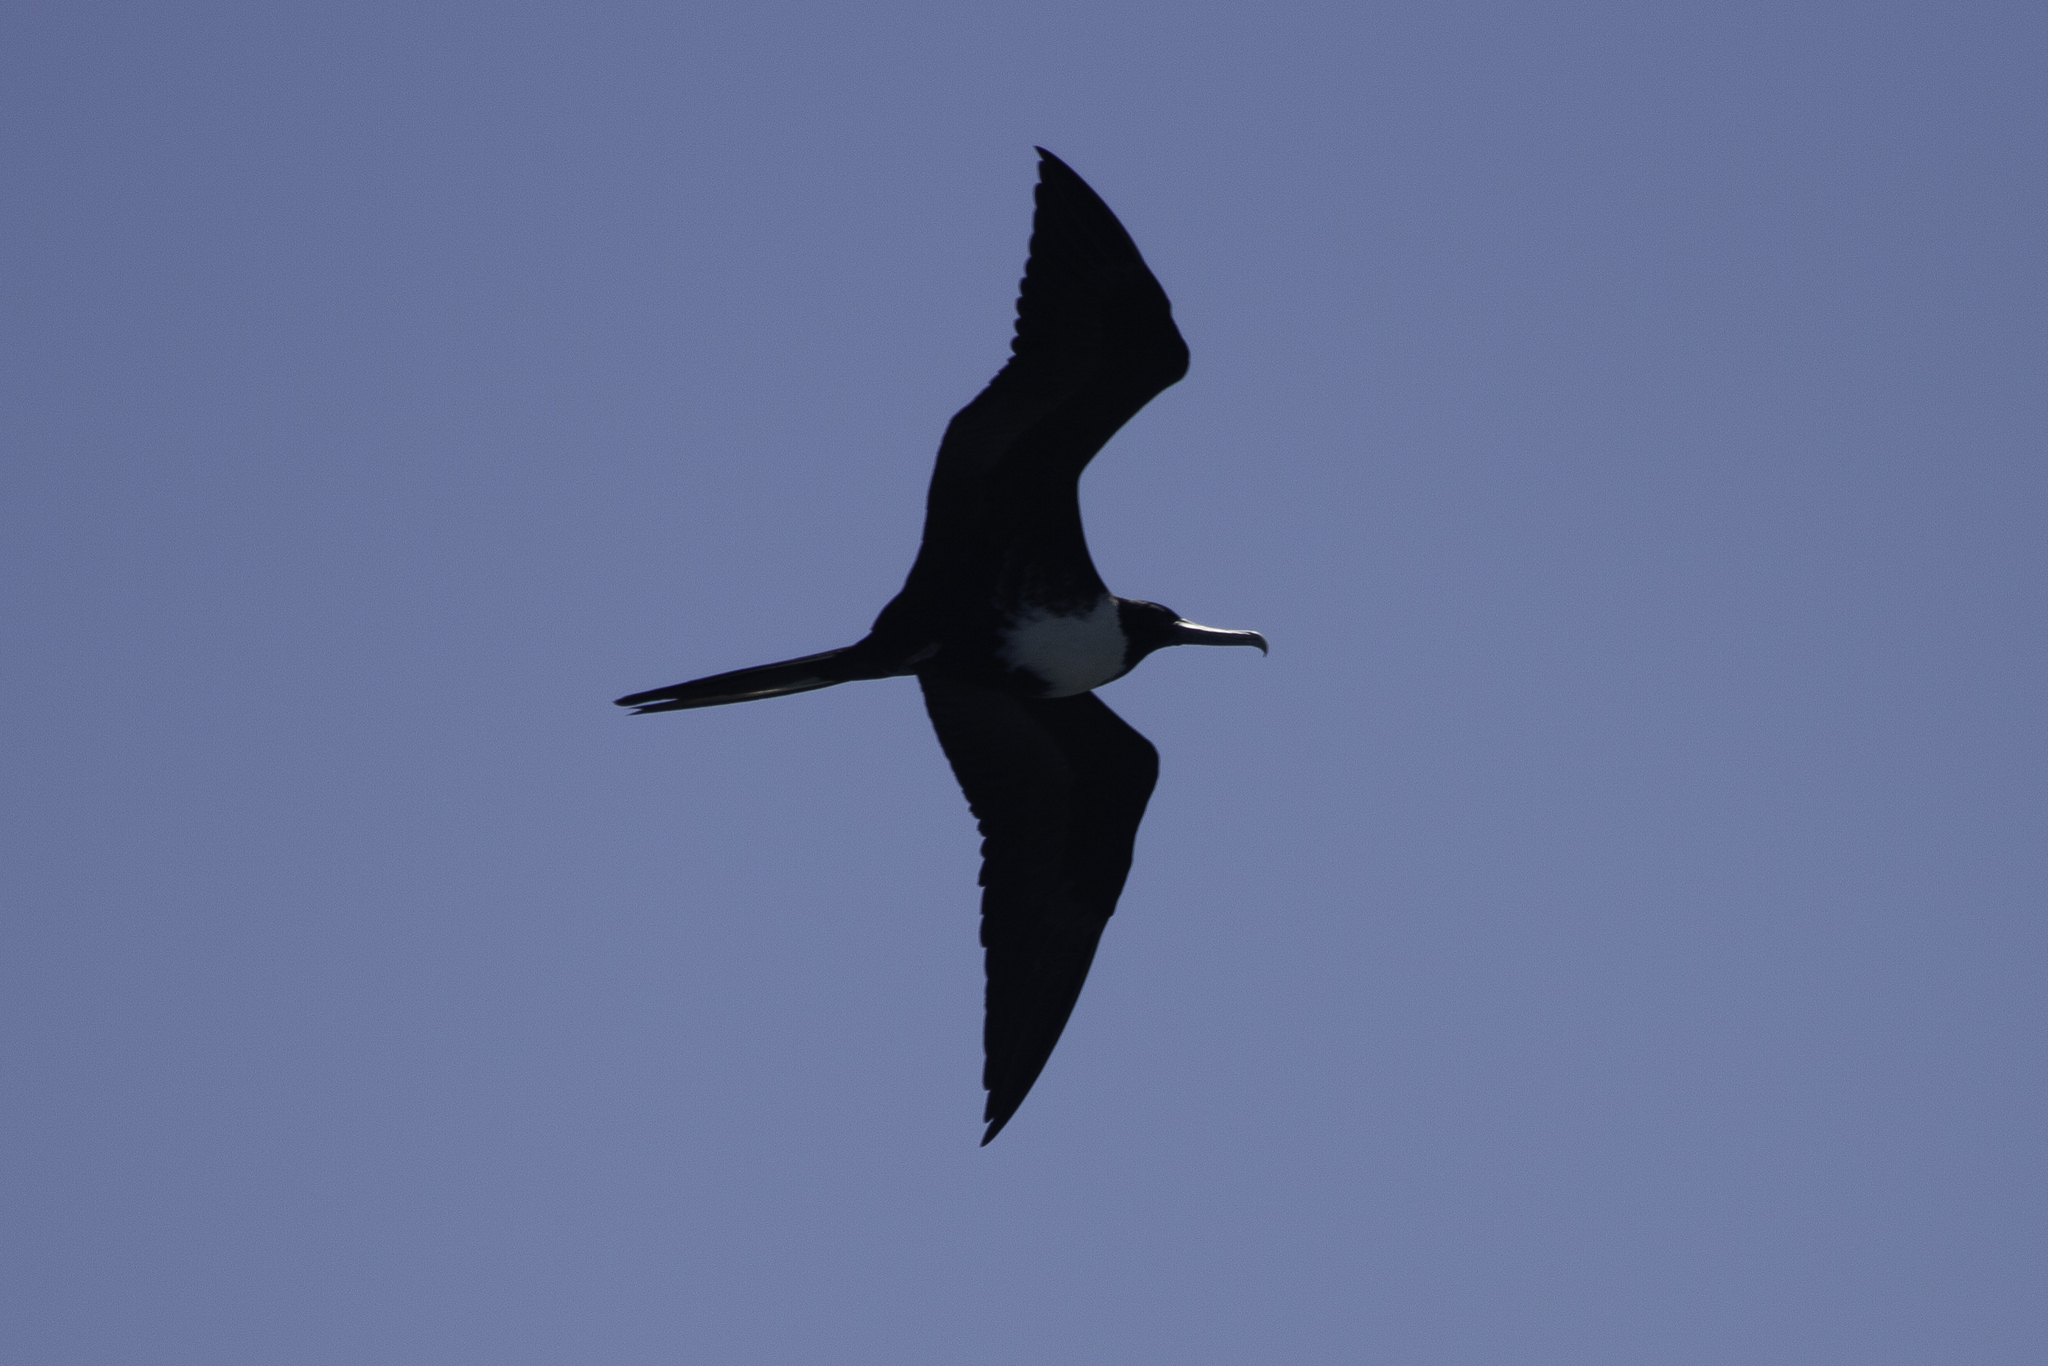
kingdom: Animalia
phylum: Chordata
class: Aves
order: Suliformes
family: Fregatidae
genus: Fregata
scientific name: Fregata magnificens
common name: Magnificent frigatebird
